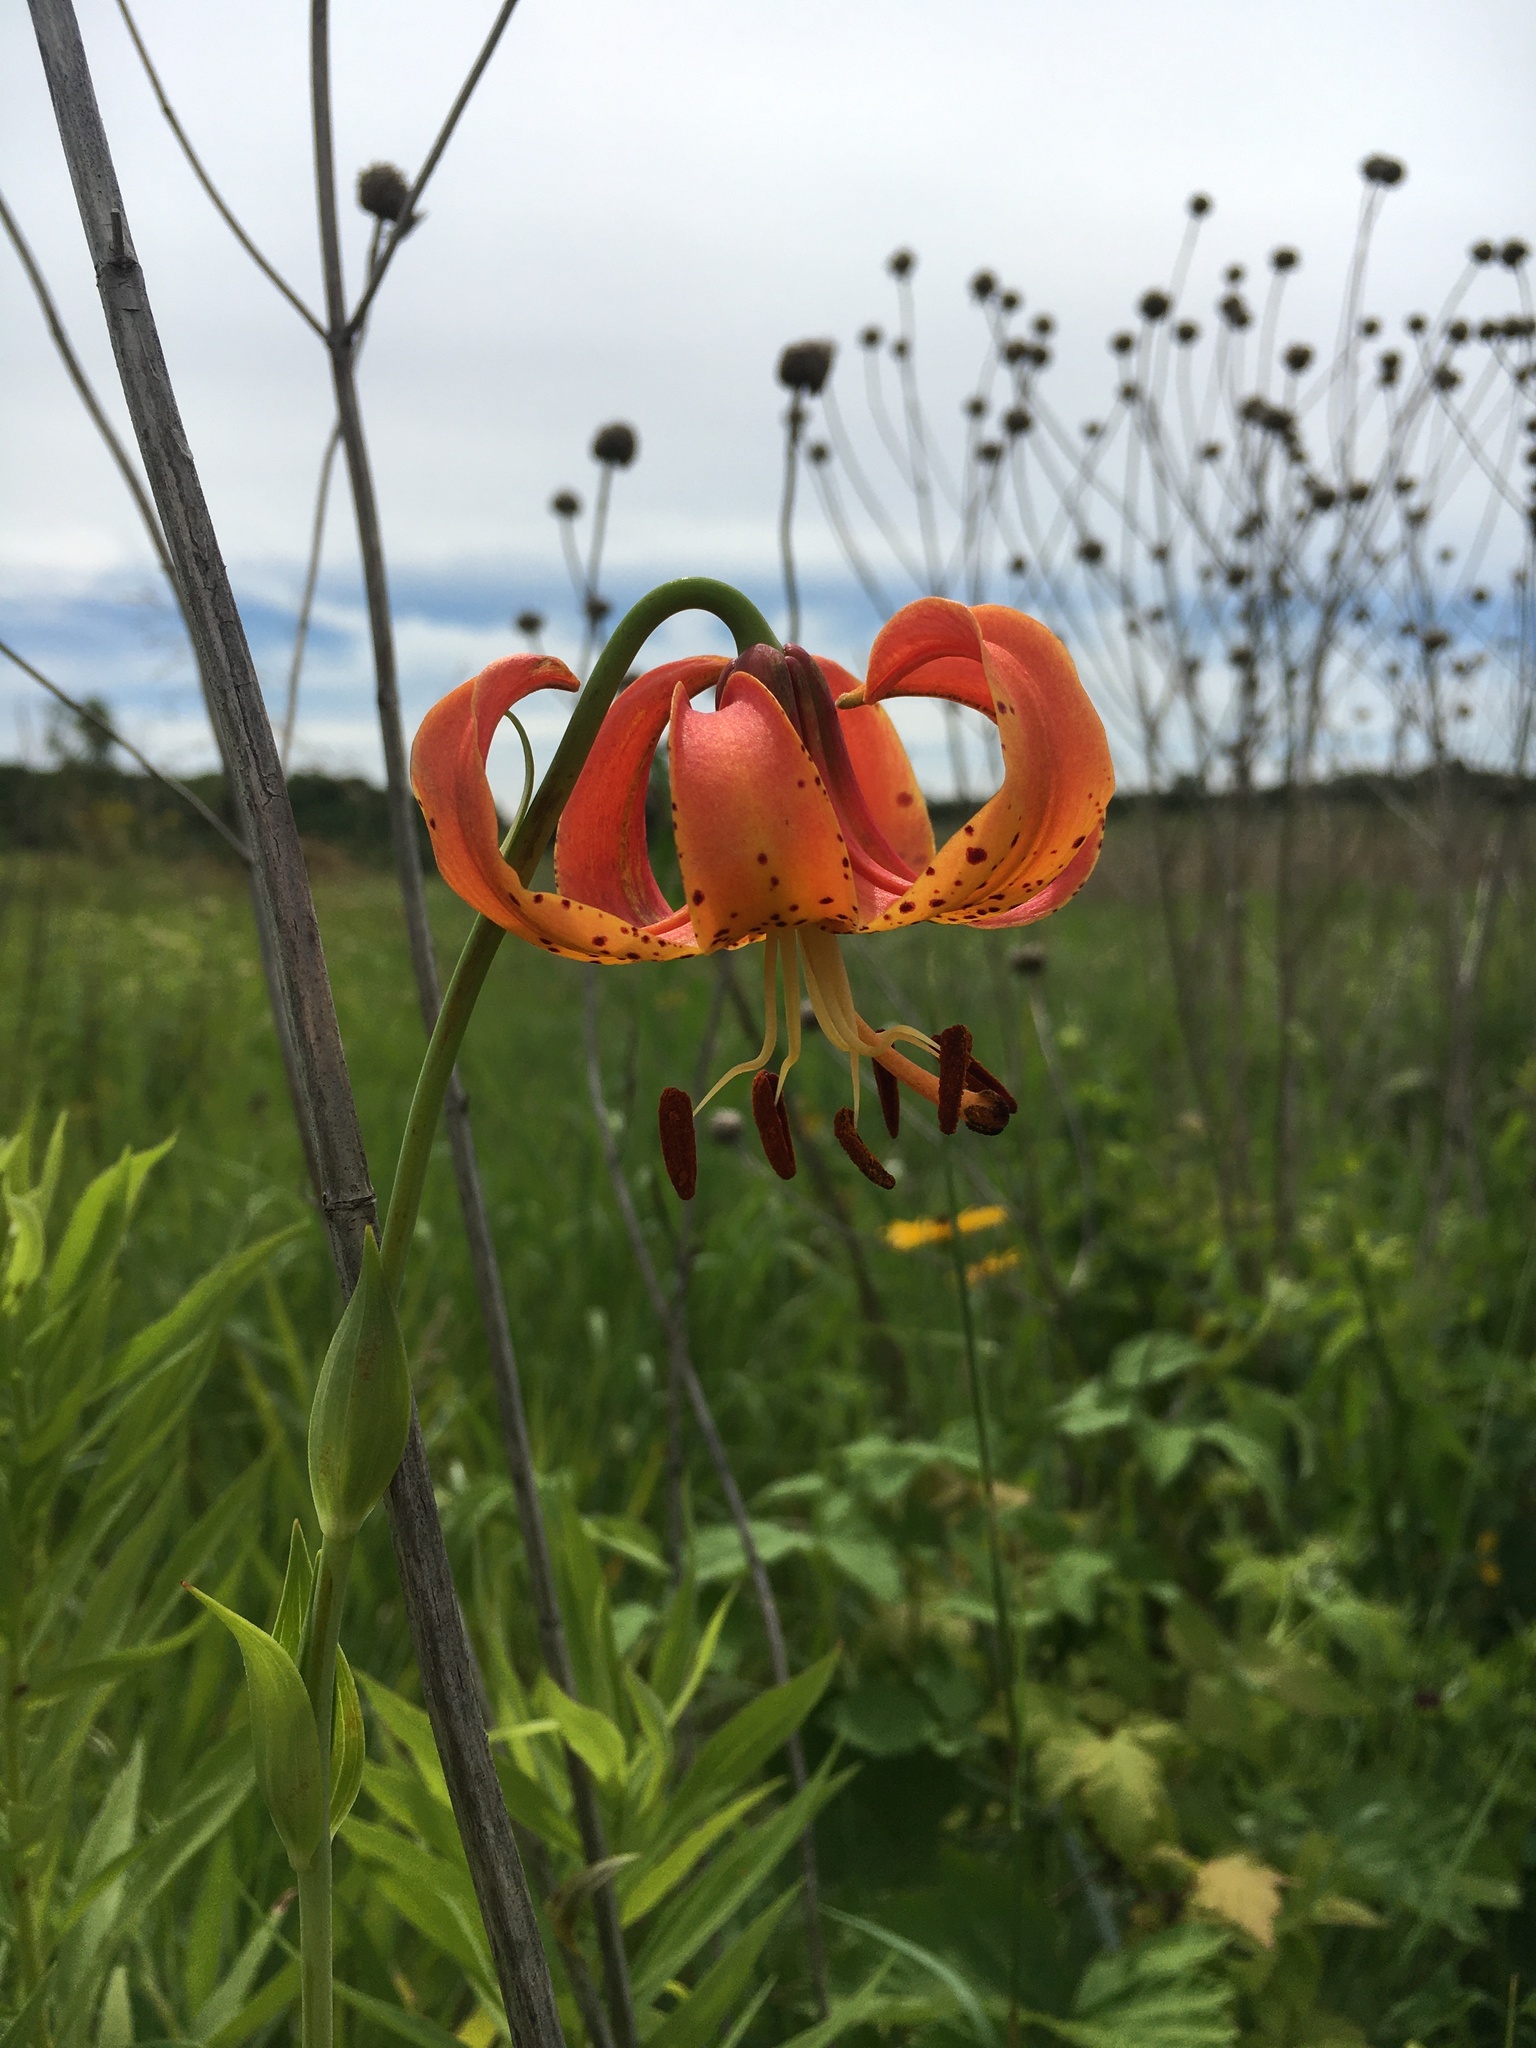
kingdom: Plantae
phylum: Tracheophyta
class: Liliopsida
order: Liliales
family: Liliaceae
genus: Lilium
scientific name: Lilium michiganense
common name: Michigan lily
